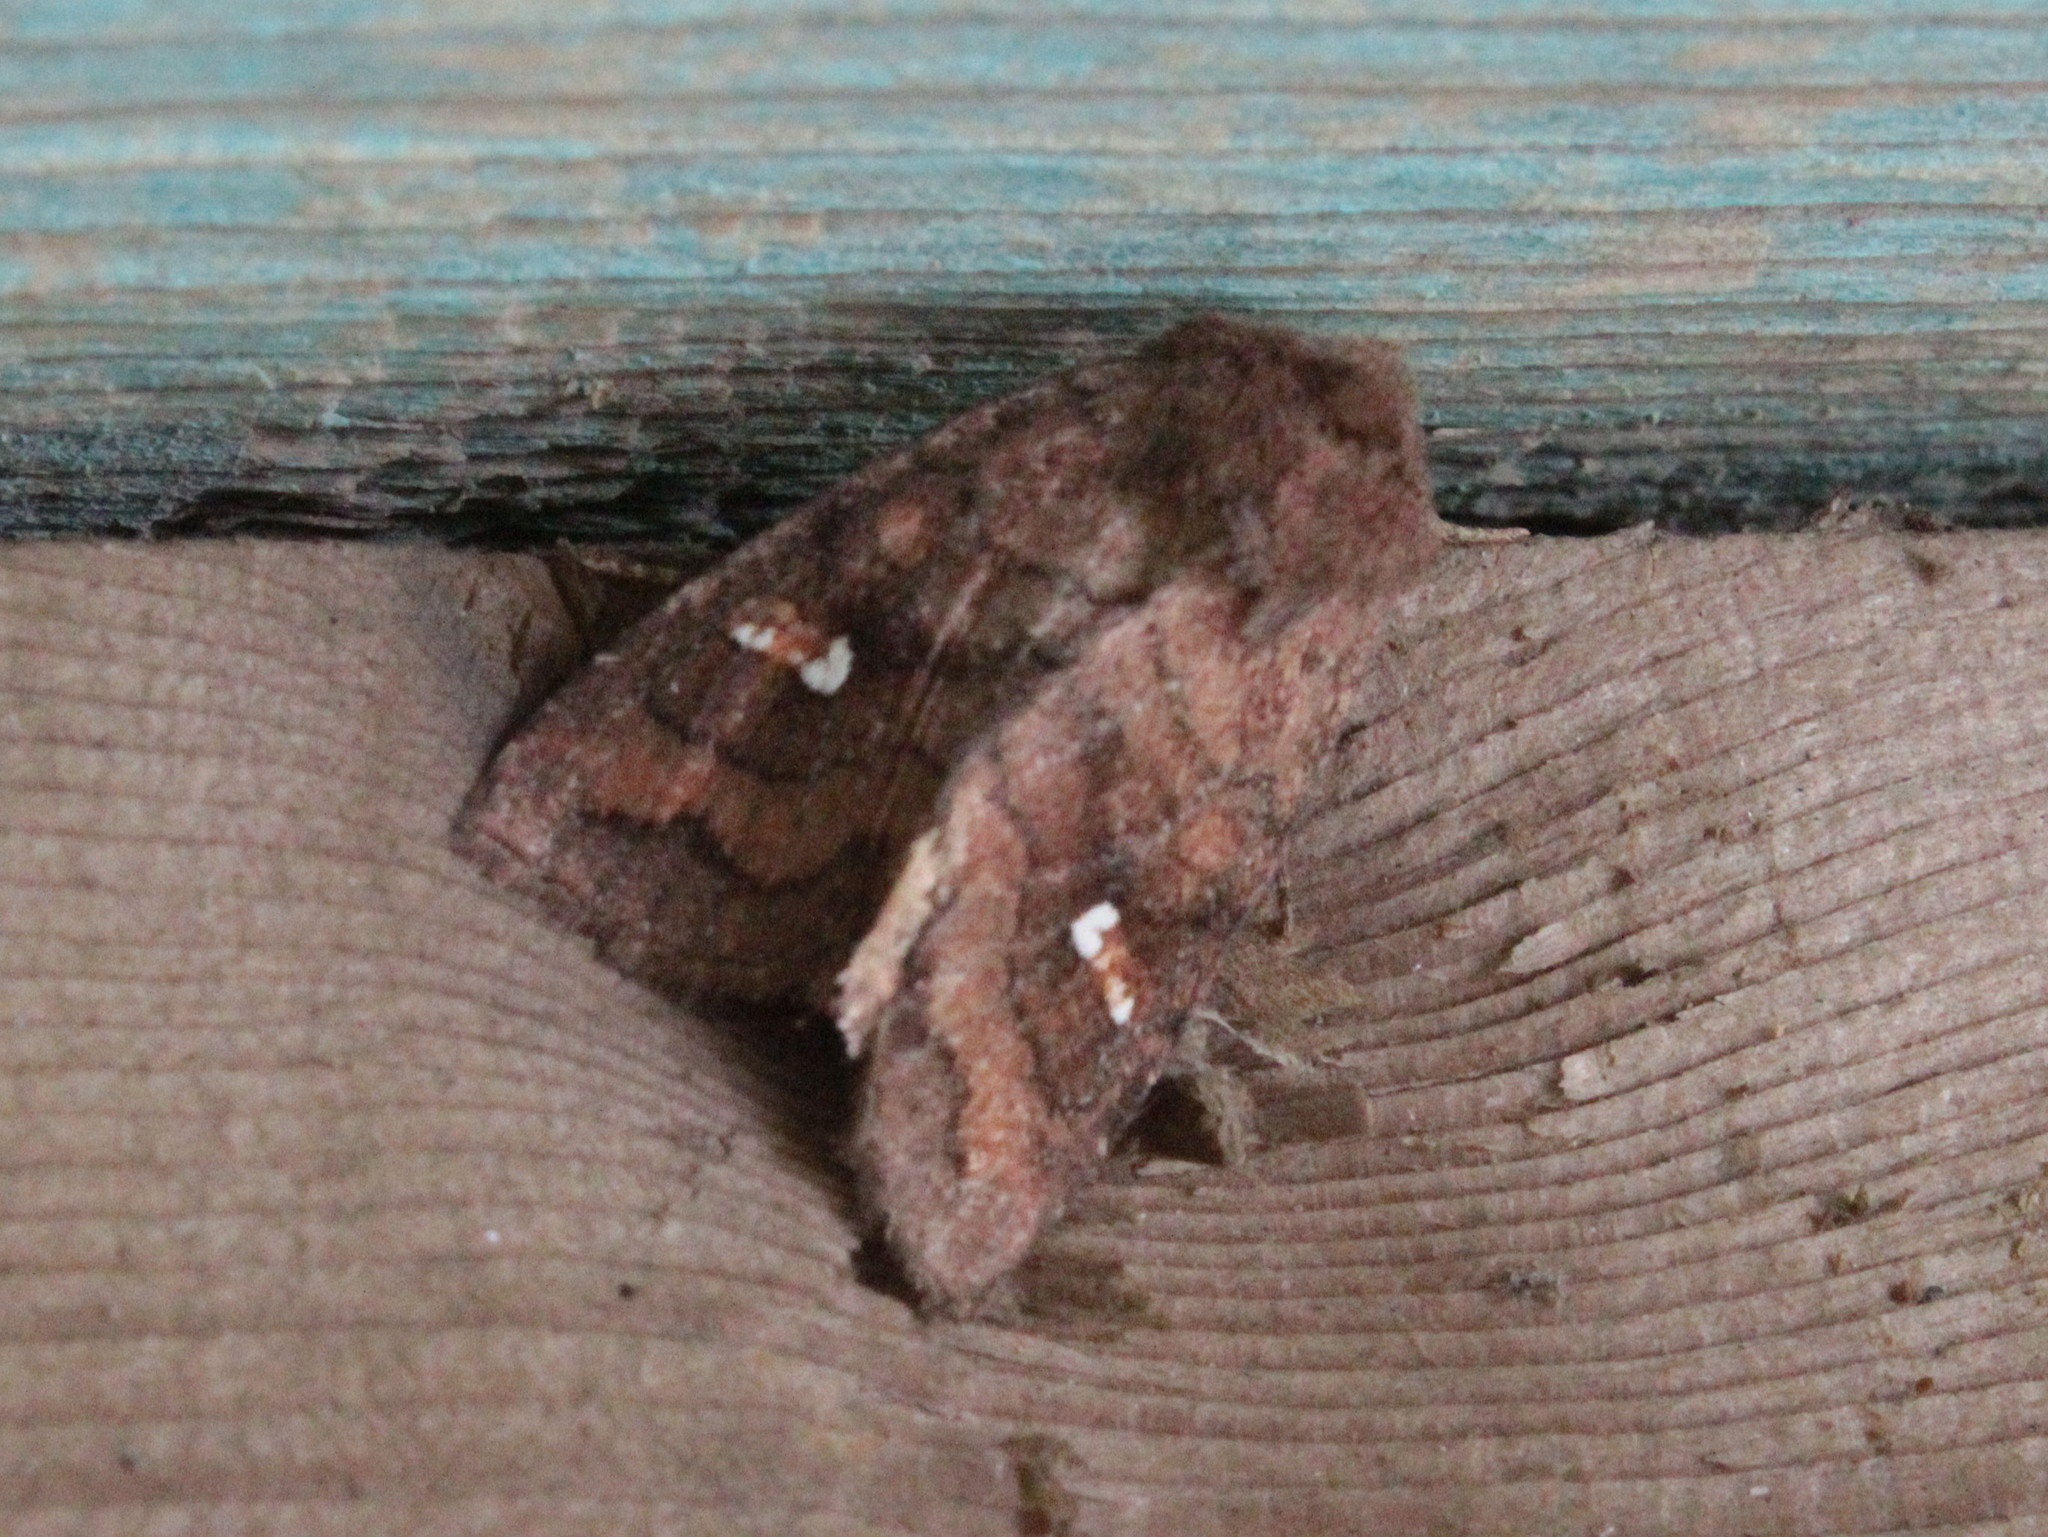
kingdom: Animalia
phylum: Arthropoda
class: Insecta
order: Lepidoptera
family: Noctuidae
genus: Tricholita
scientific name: Tricholita signata
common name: Signate quaker
